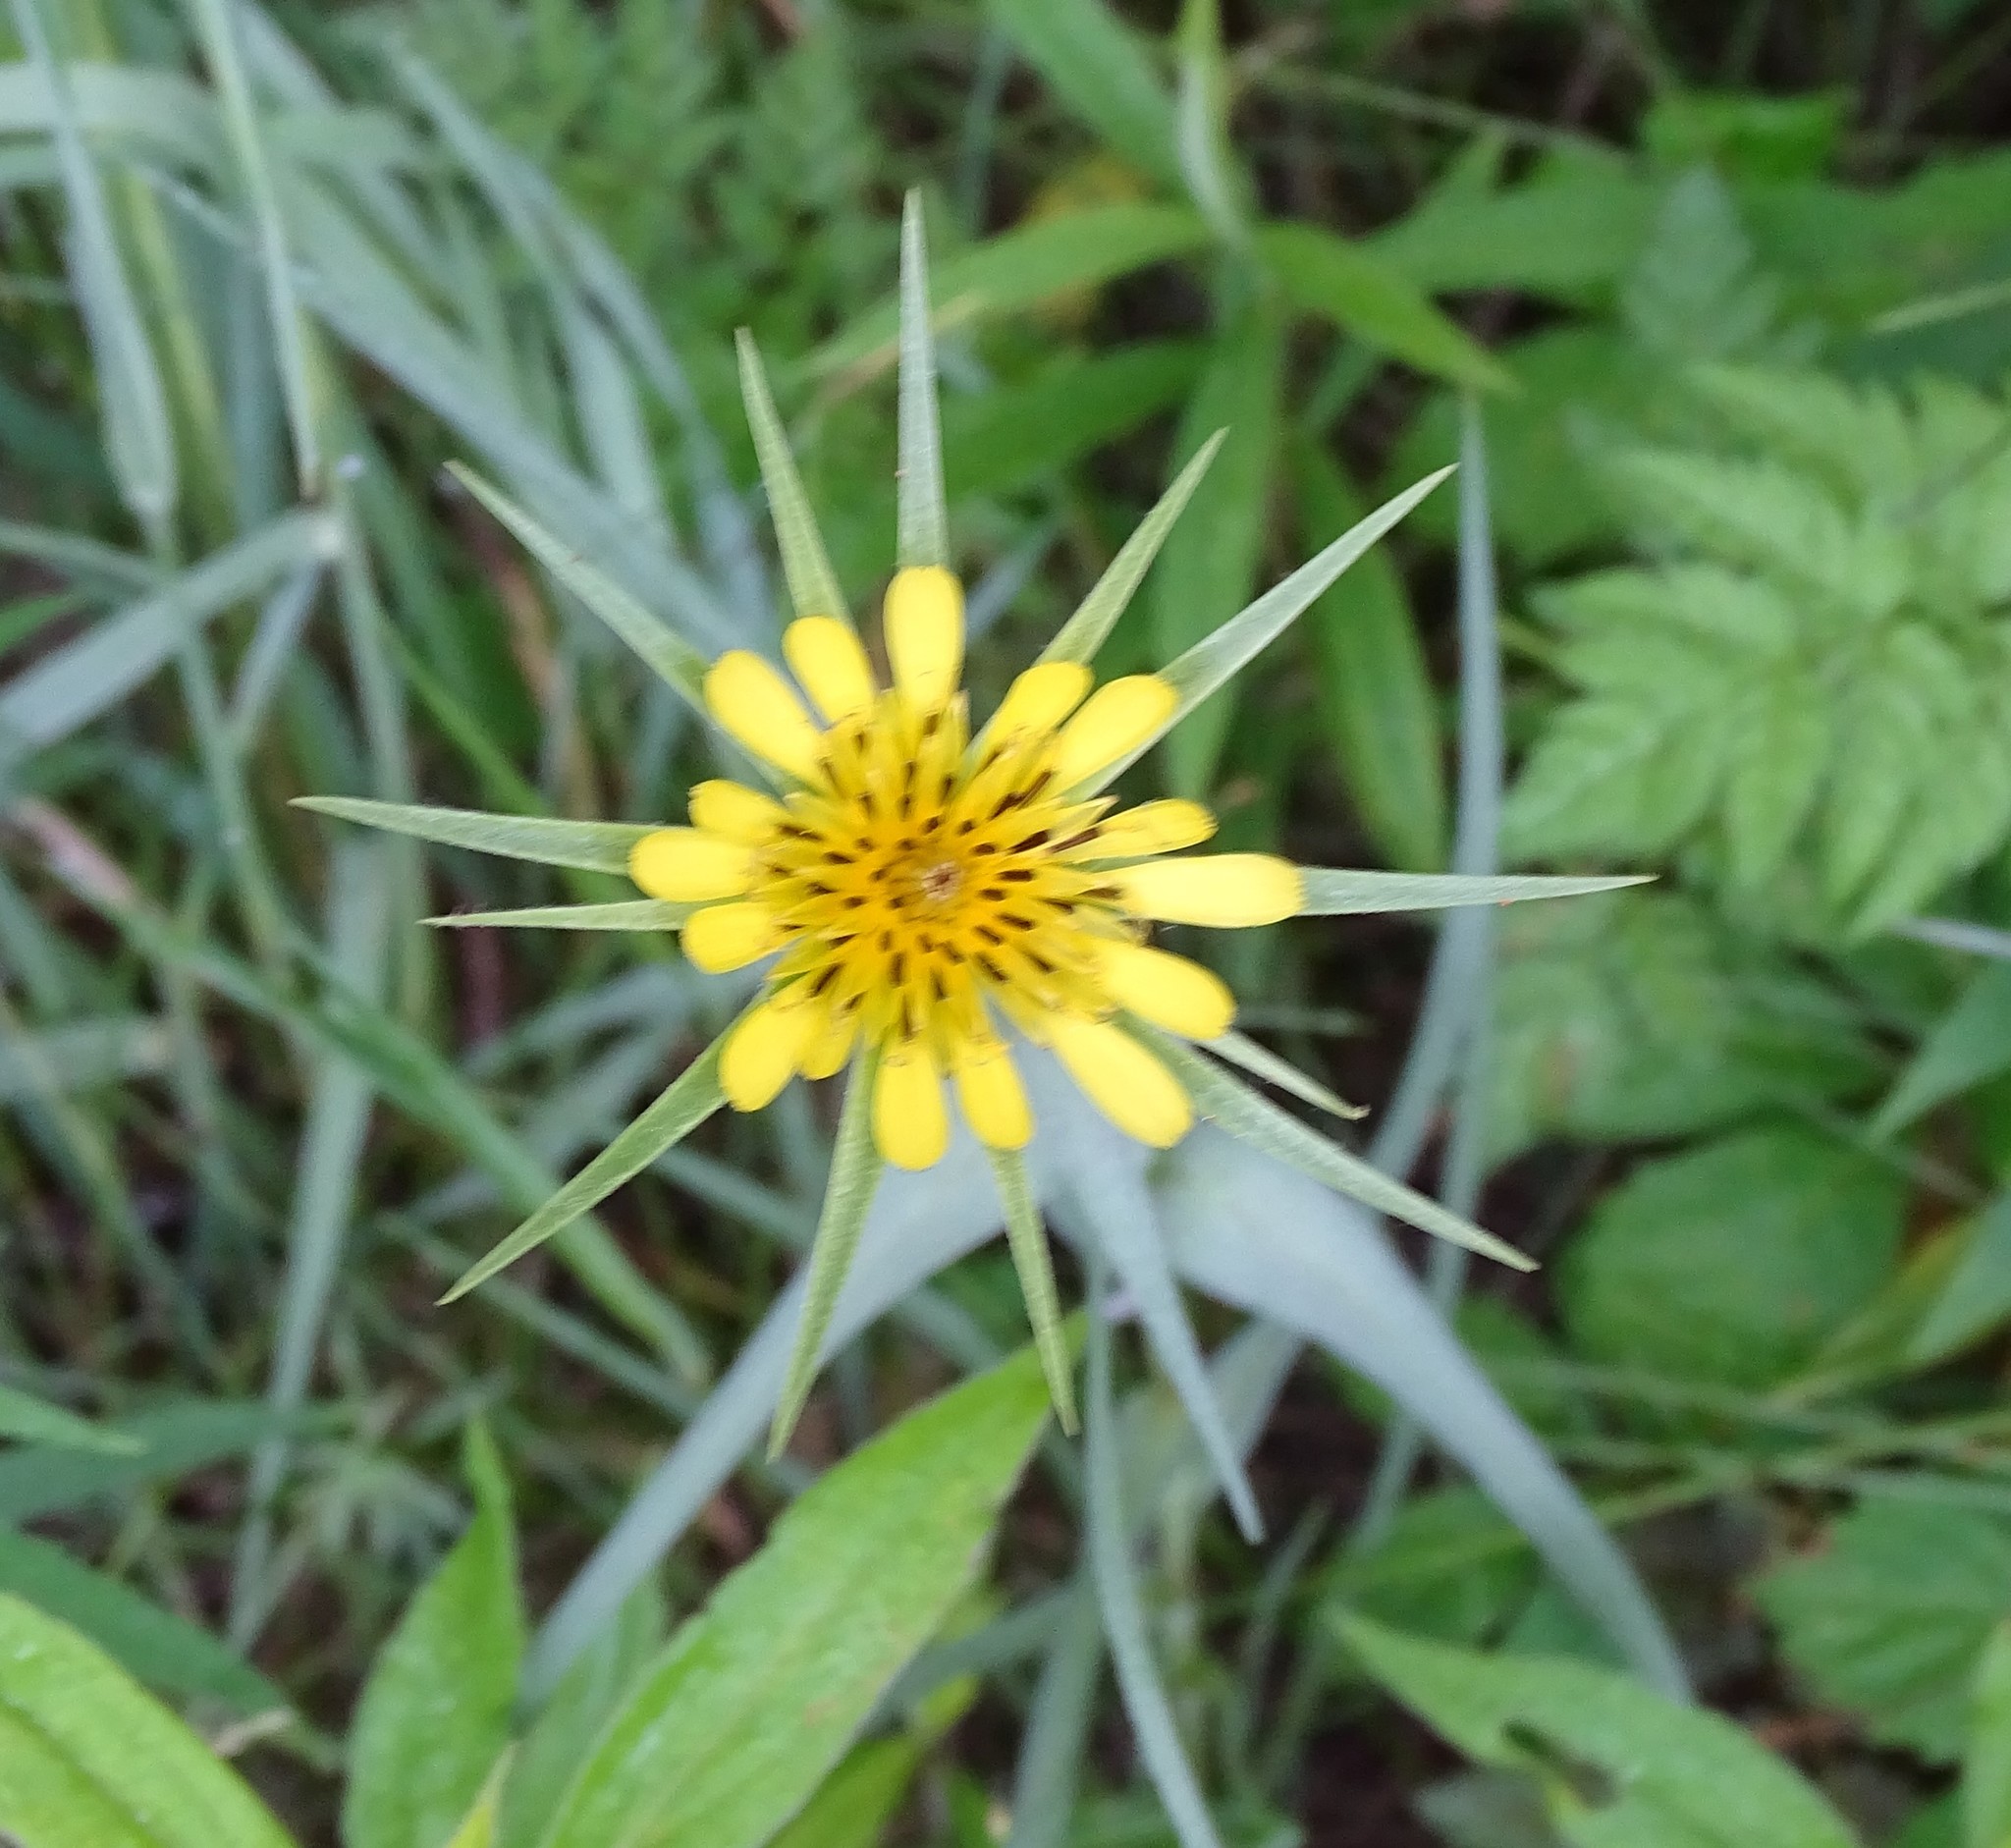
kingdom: Plantae
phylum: Tracheophyta
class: Magnoliopsida
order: Asterales
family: Asteraceae
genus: Tragopogon
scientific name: Tragopogon dubius
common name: Yellow salsify
